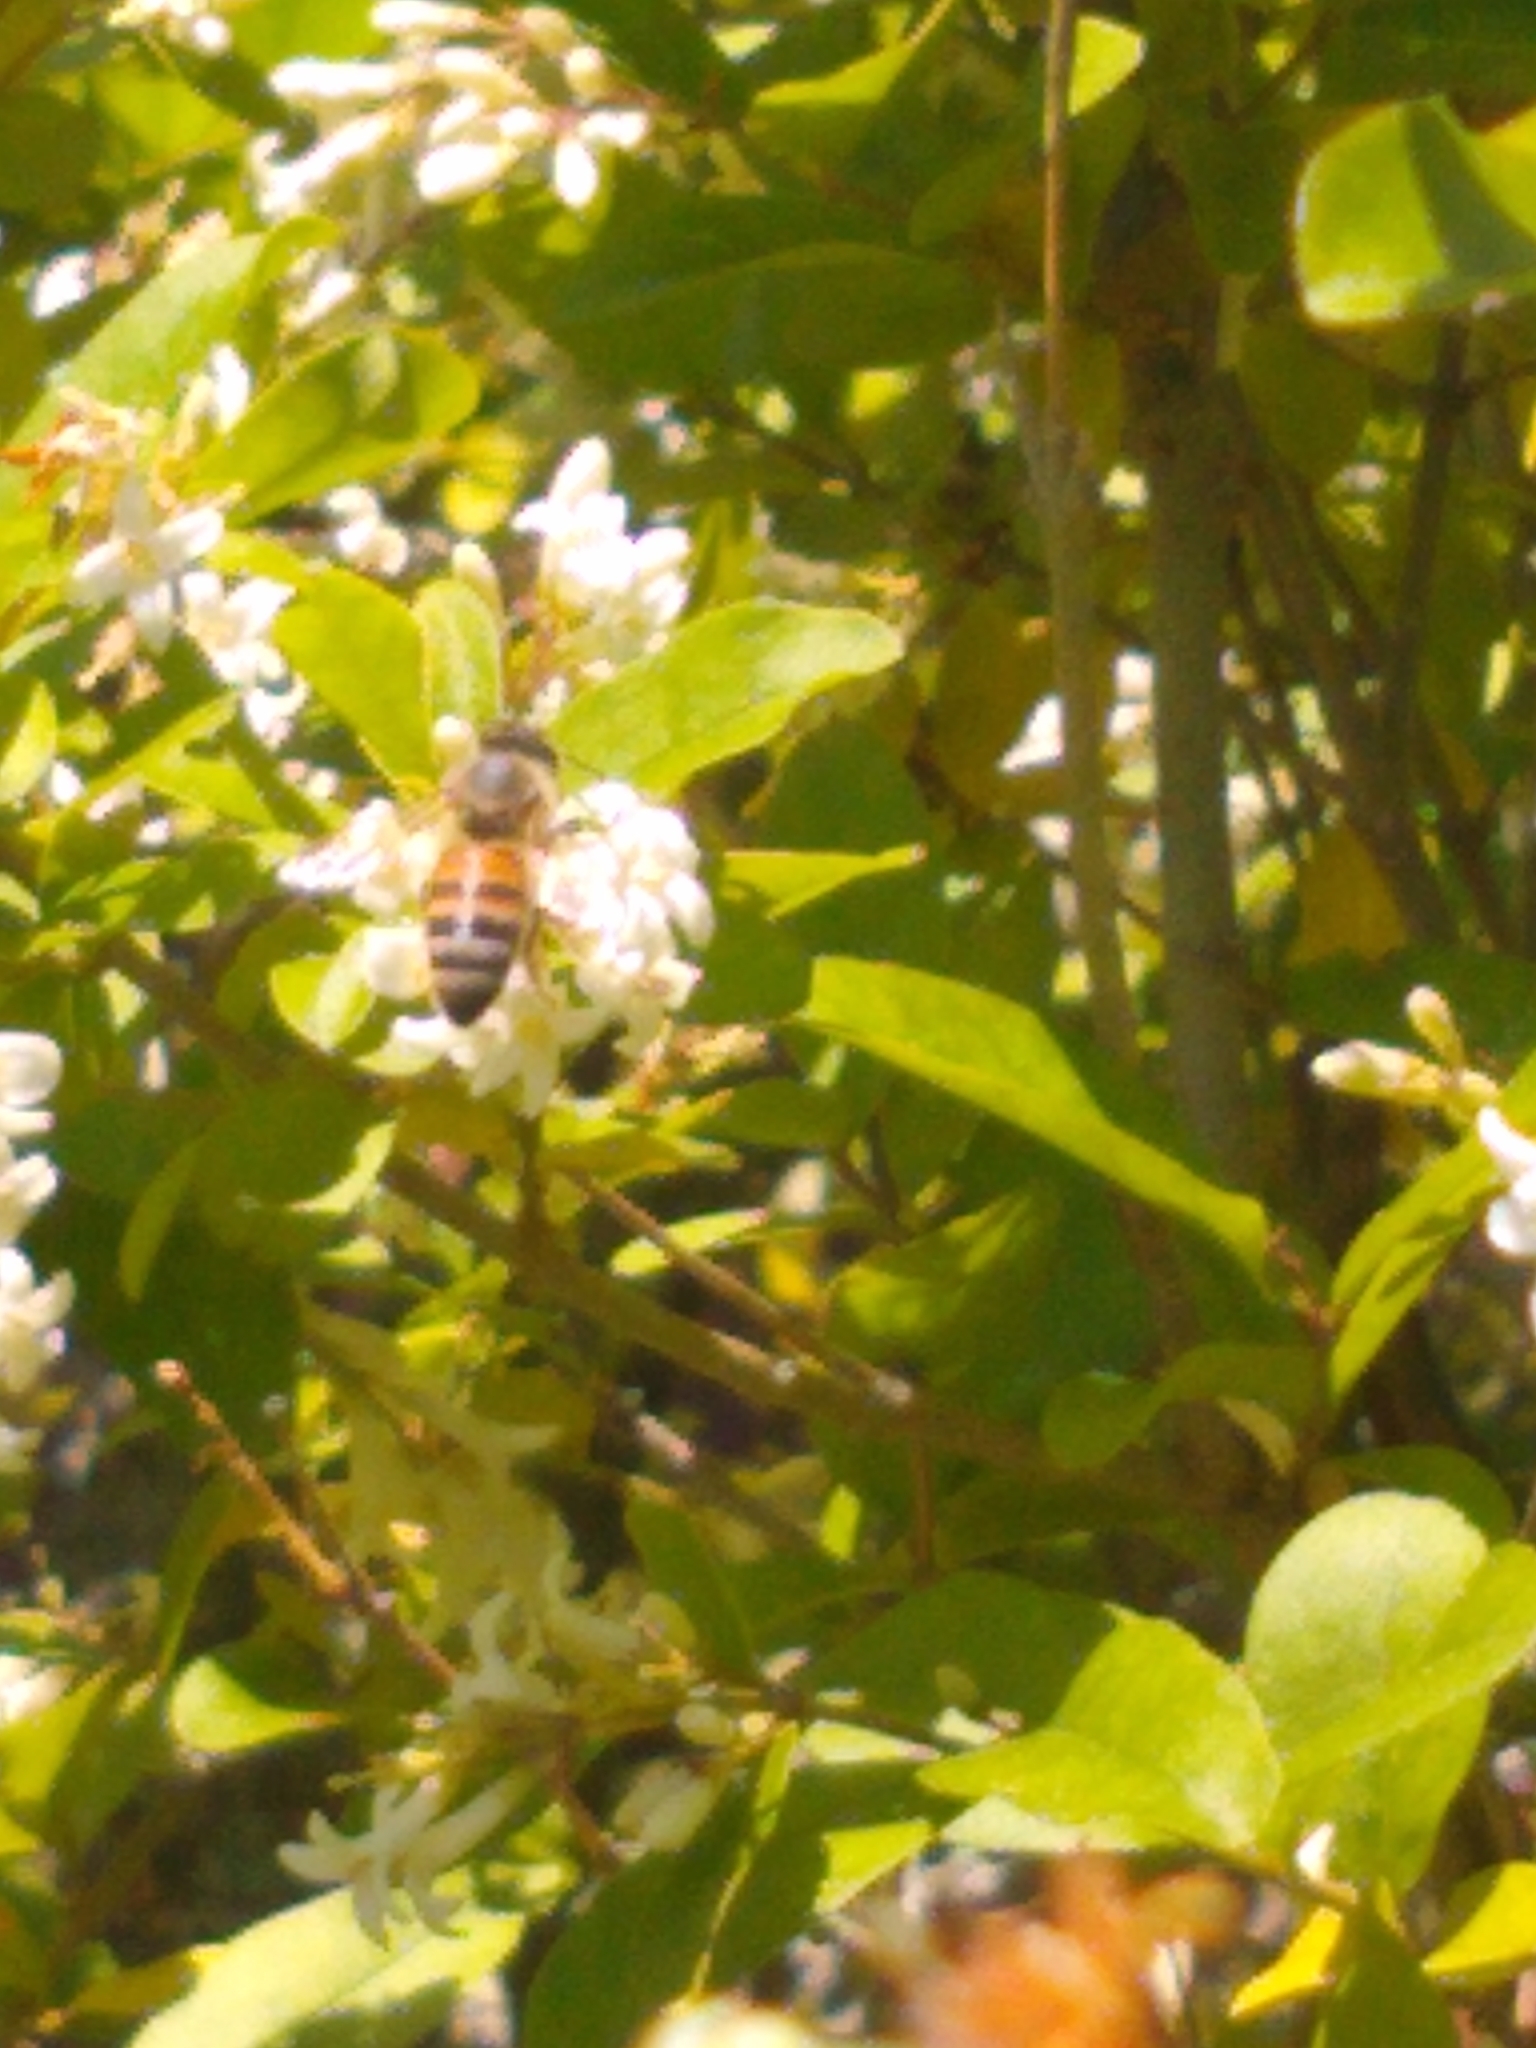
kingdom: Animalia
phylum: Arthropoda
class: Insecta
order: Hymenoptera
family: Apidae
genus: Apis
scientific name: Apis mellifera
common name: Honey bee
